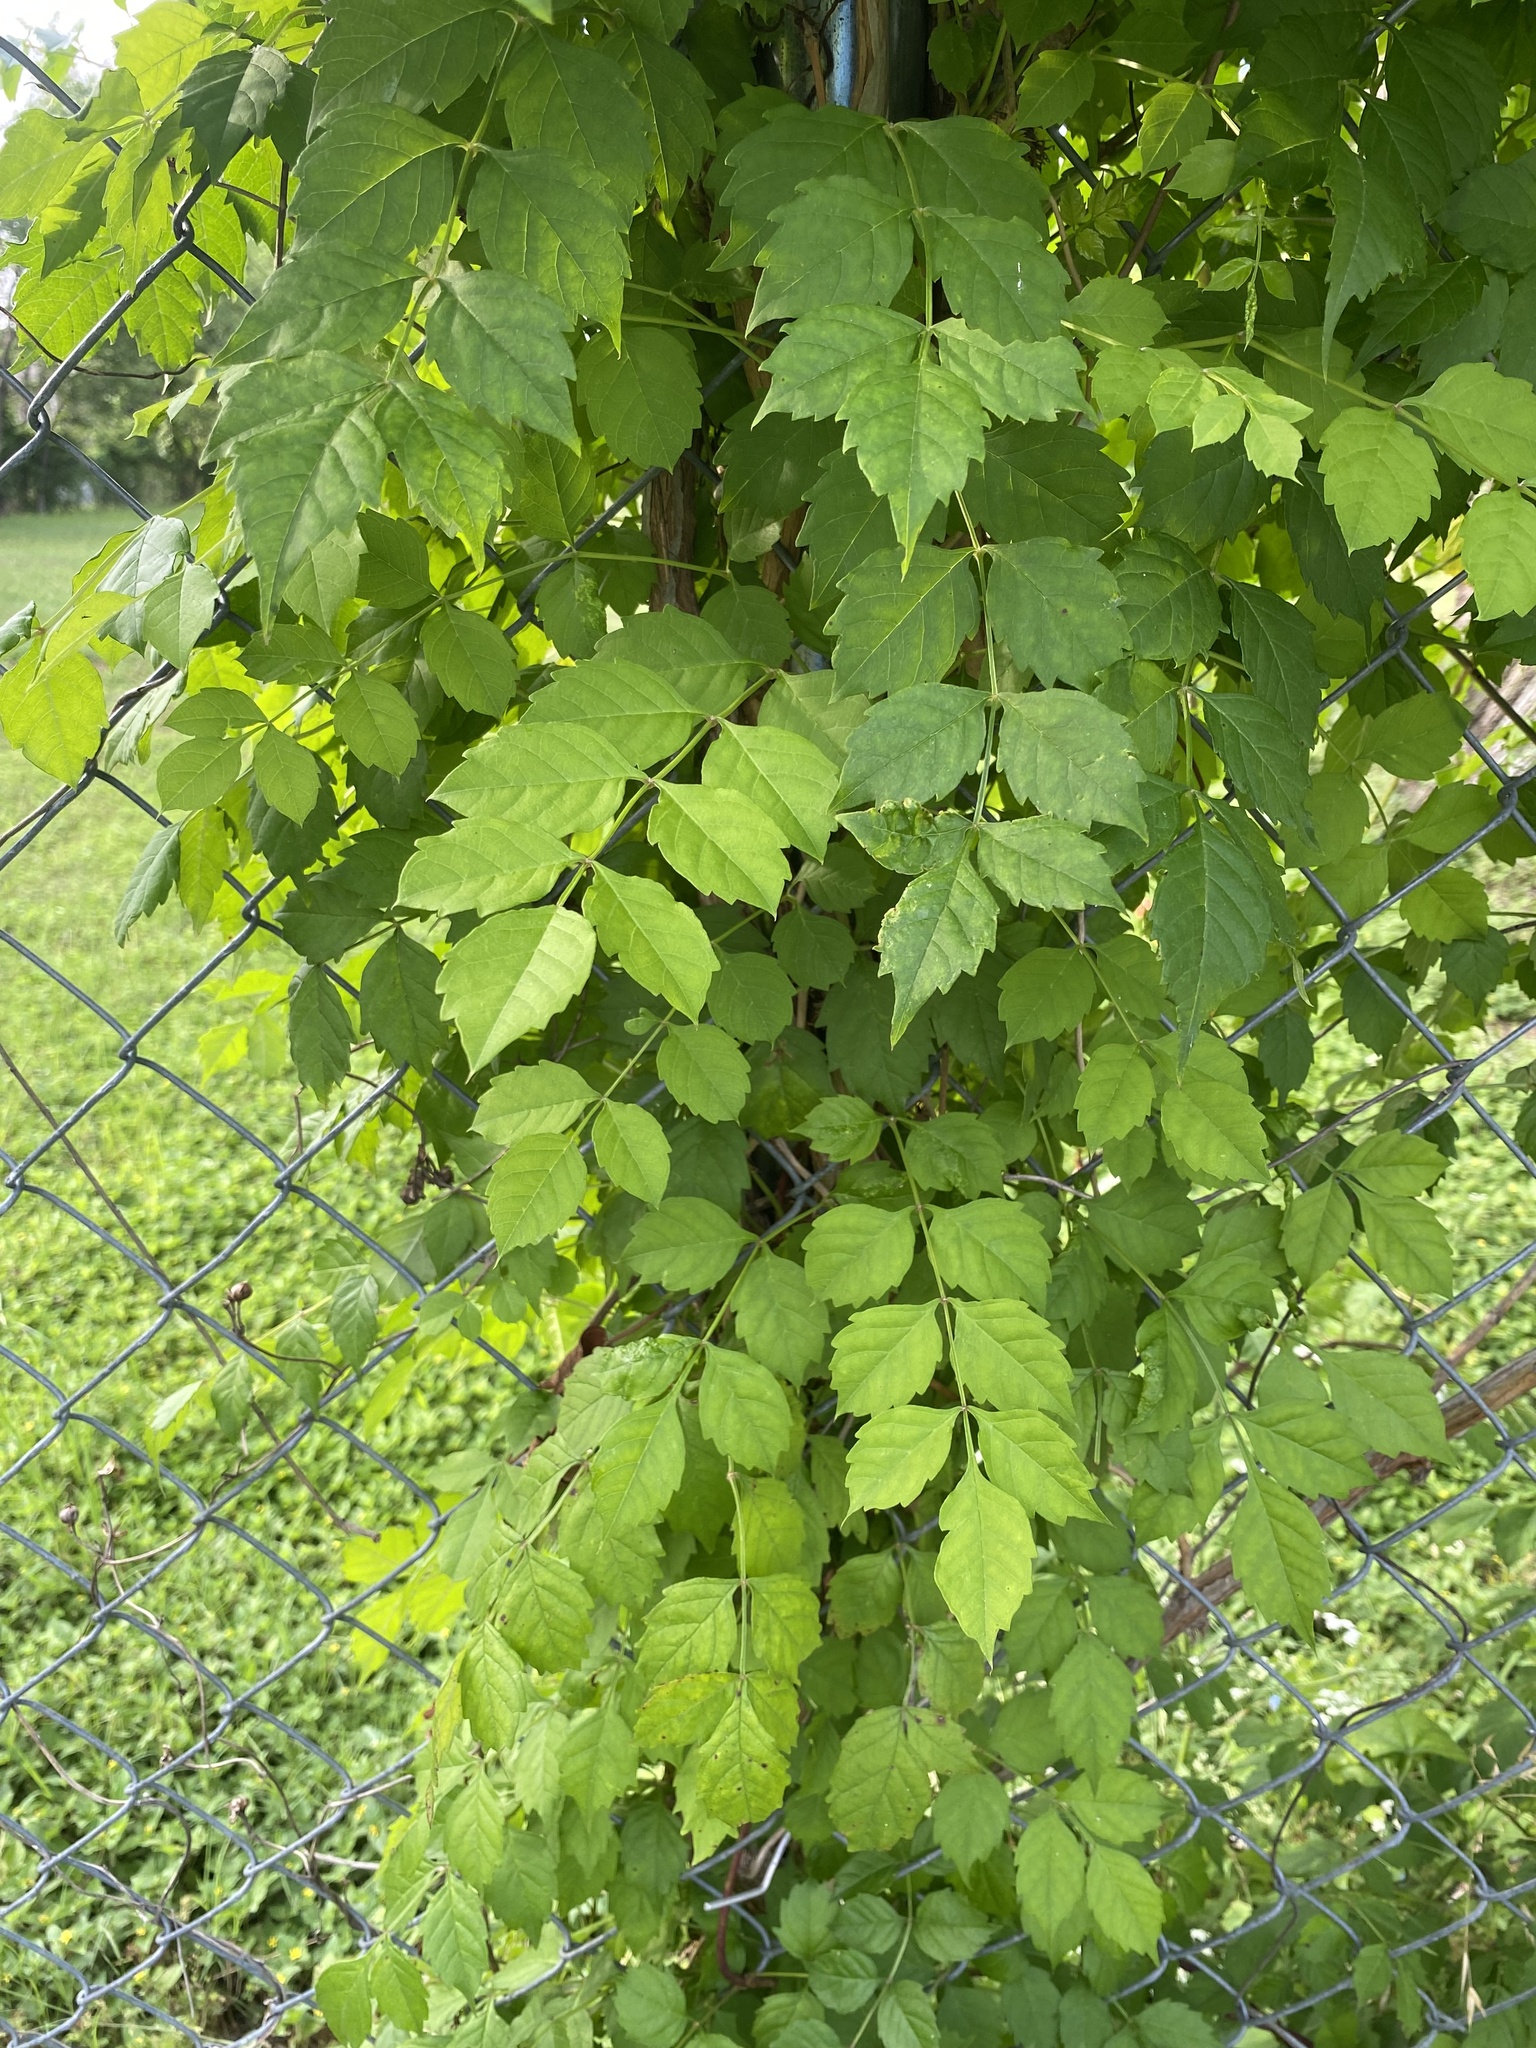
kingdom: Plantae
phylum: Tracheophyta
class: Magnoliopsida
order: Lamiales
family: Bignoniaceae
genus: Campsis
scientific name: Campsis radicans
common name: Trumpet-creeper
